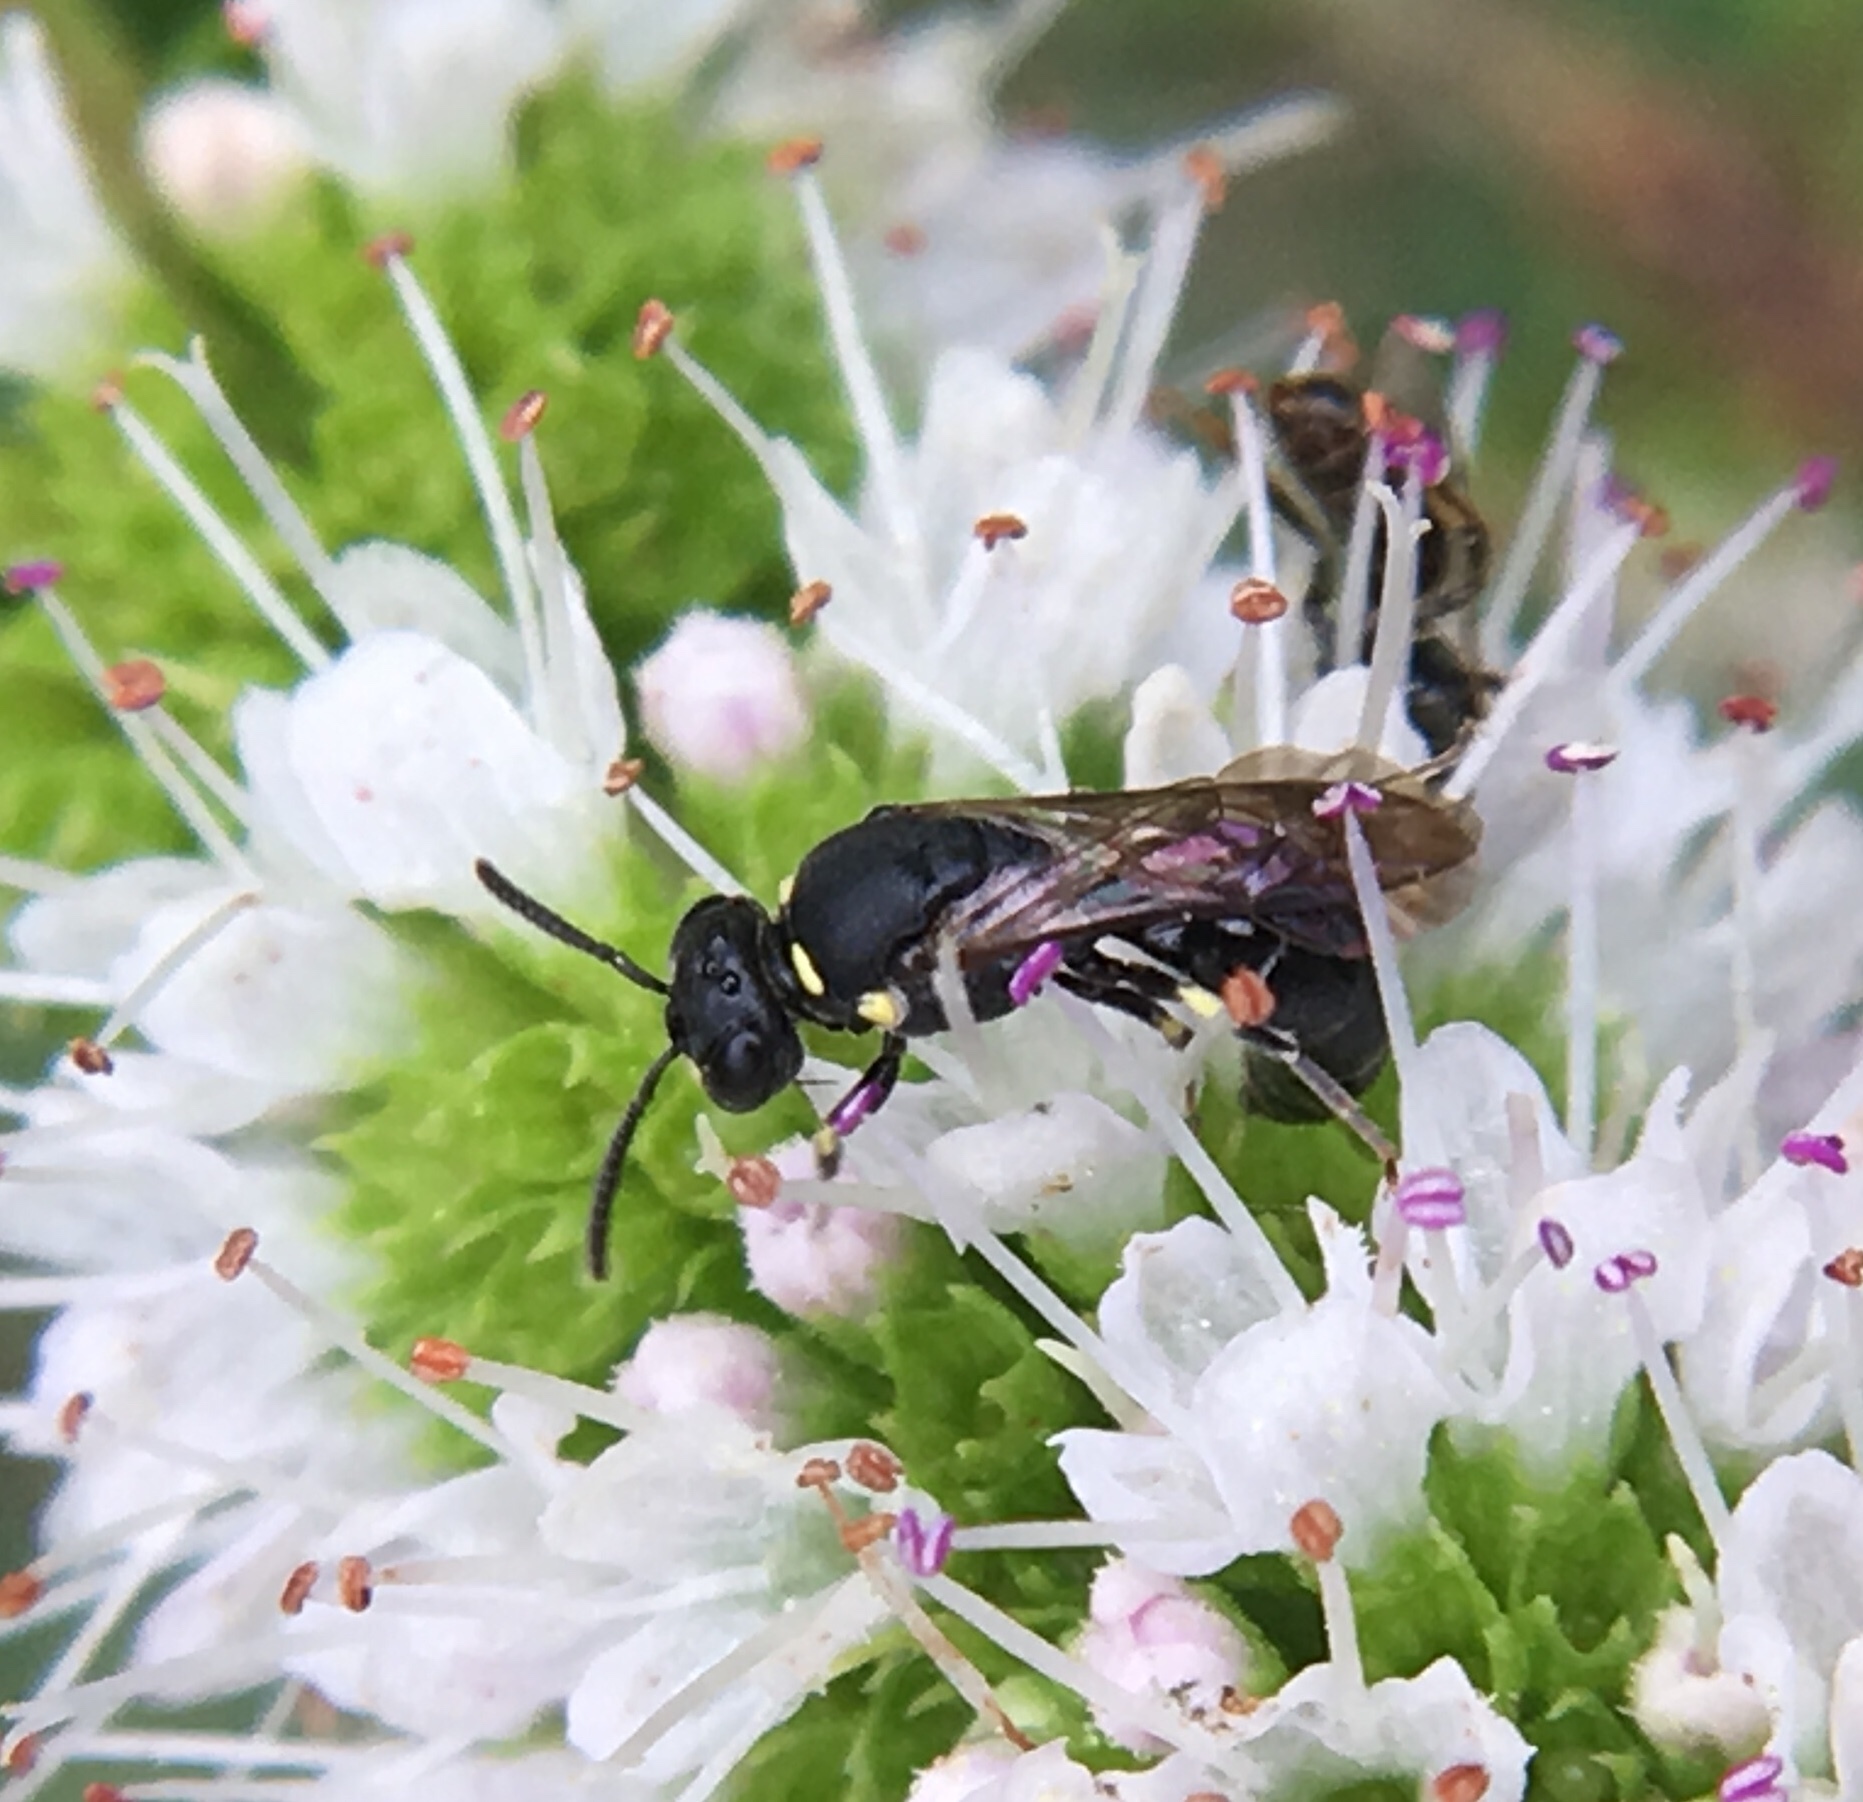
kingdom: Animalia
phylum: Arthropoda
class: Insecta
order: Hymenoptera
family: Colletidae
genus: Hylaeus
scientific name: Hylaeus modestus
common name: Yellow-faced bee
